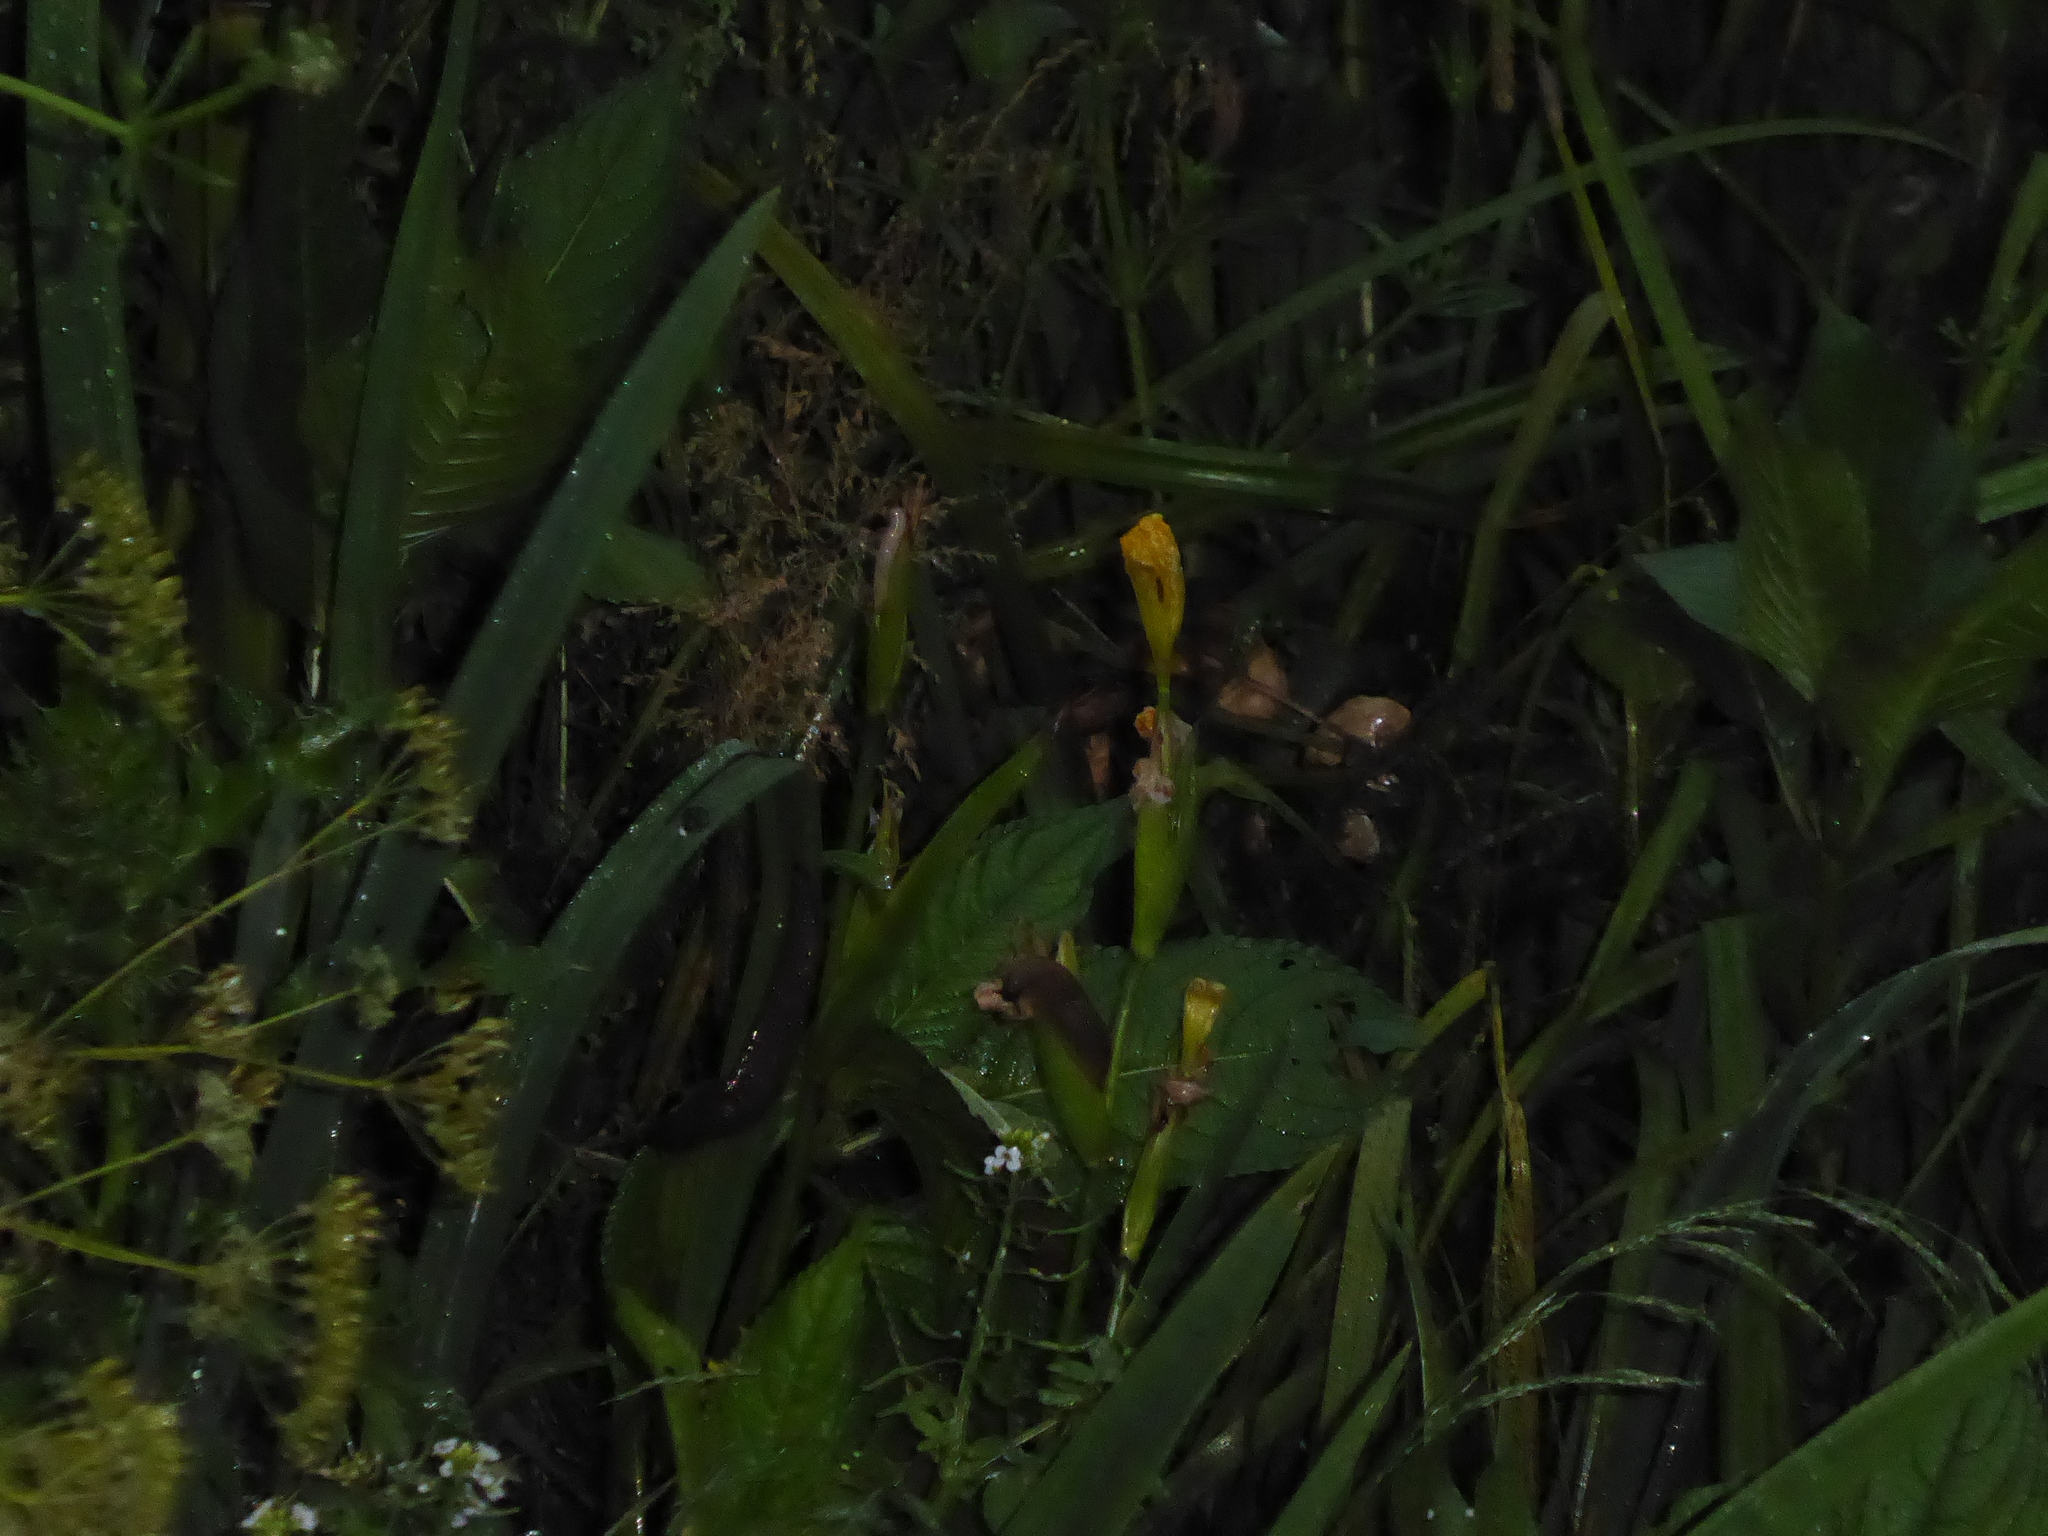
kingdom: Plantae
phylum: Tracheophyta
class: Liliopsida
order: Asparagales
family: Iridaceae
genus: Iris
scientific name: Iris pseudacorus
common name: Yellow flag
